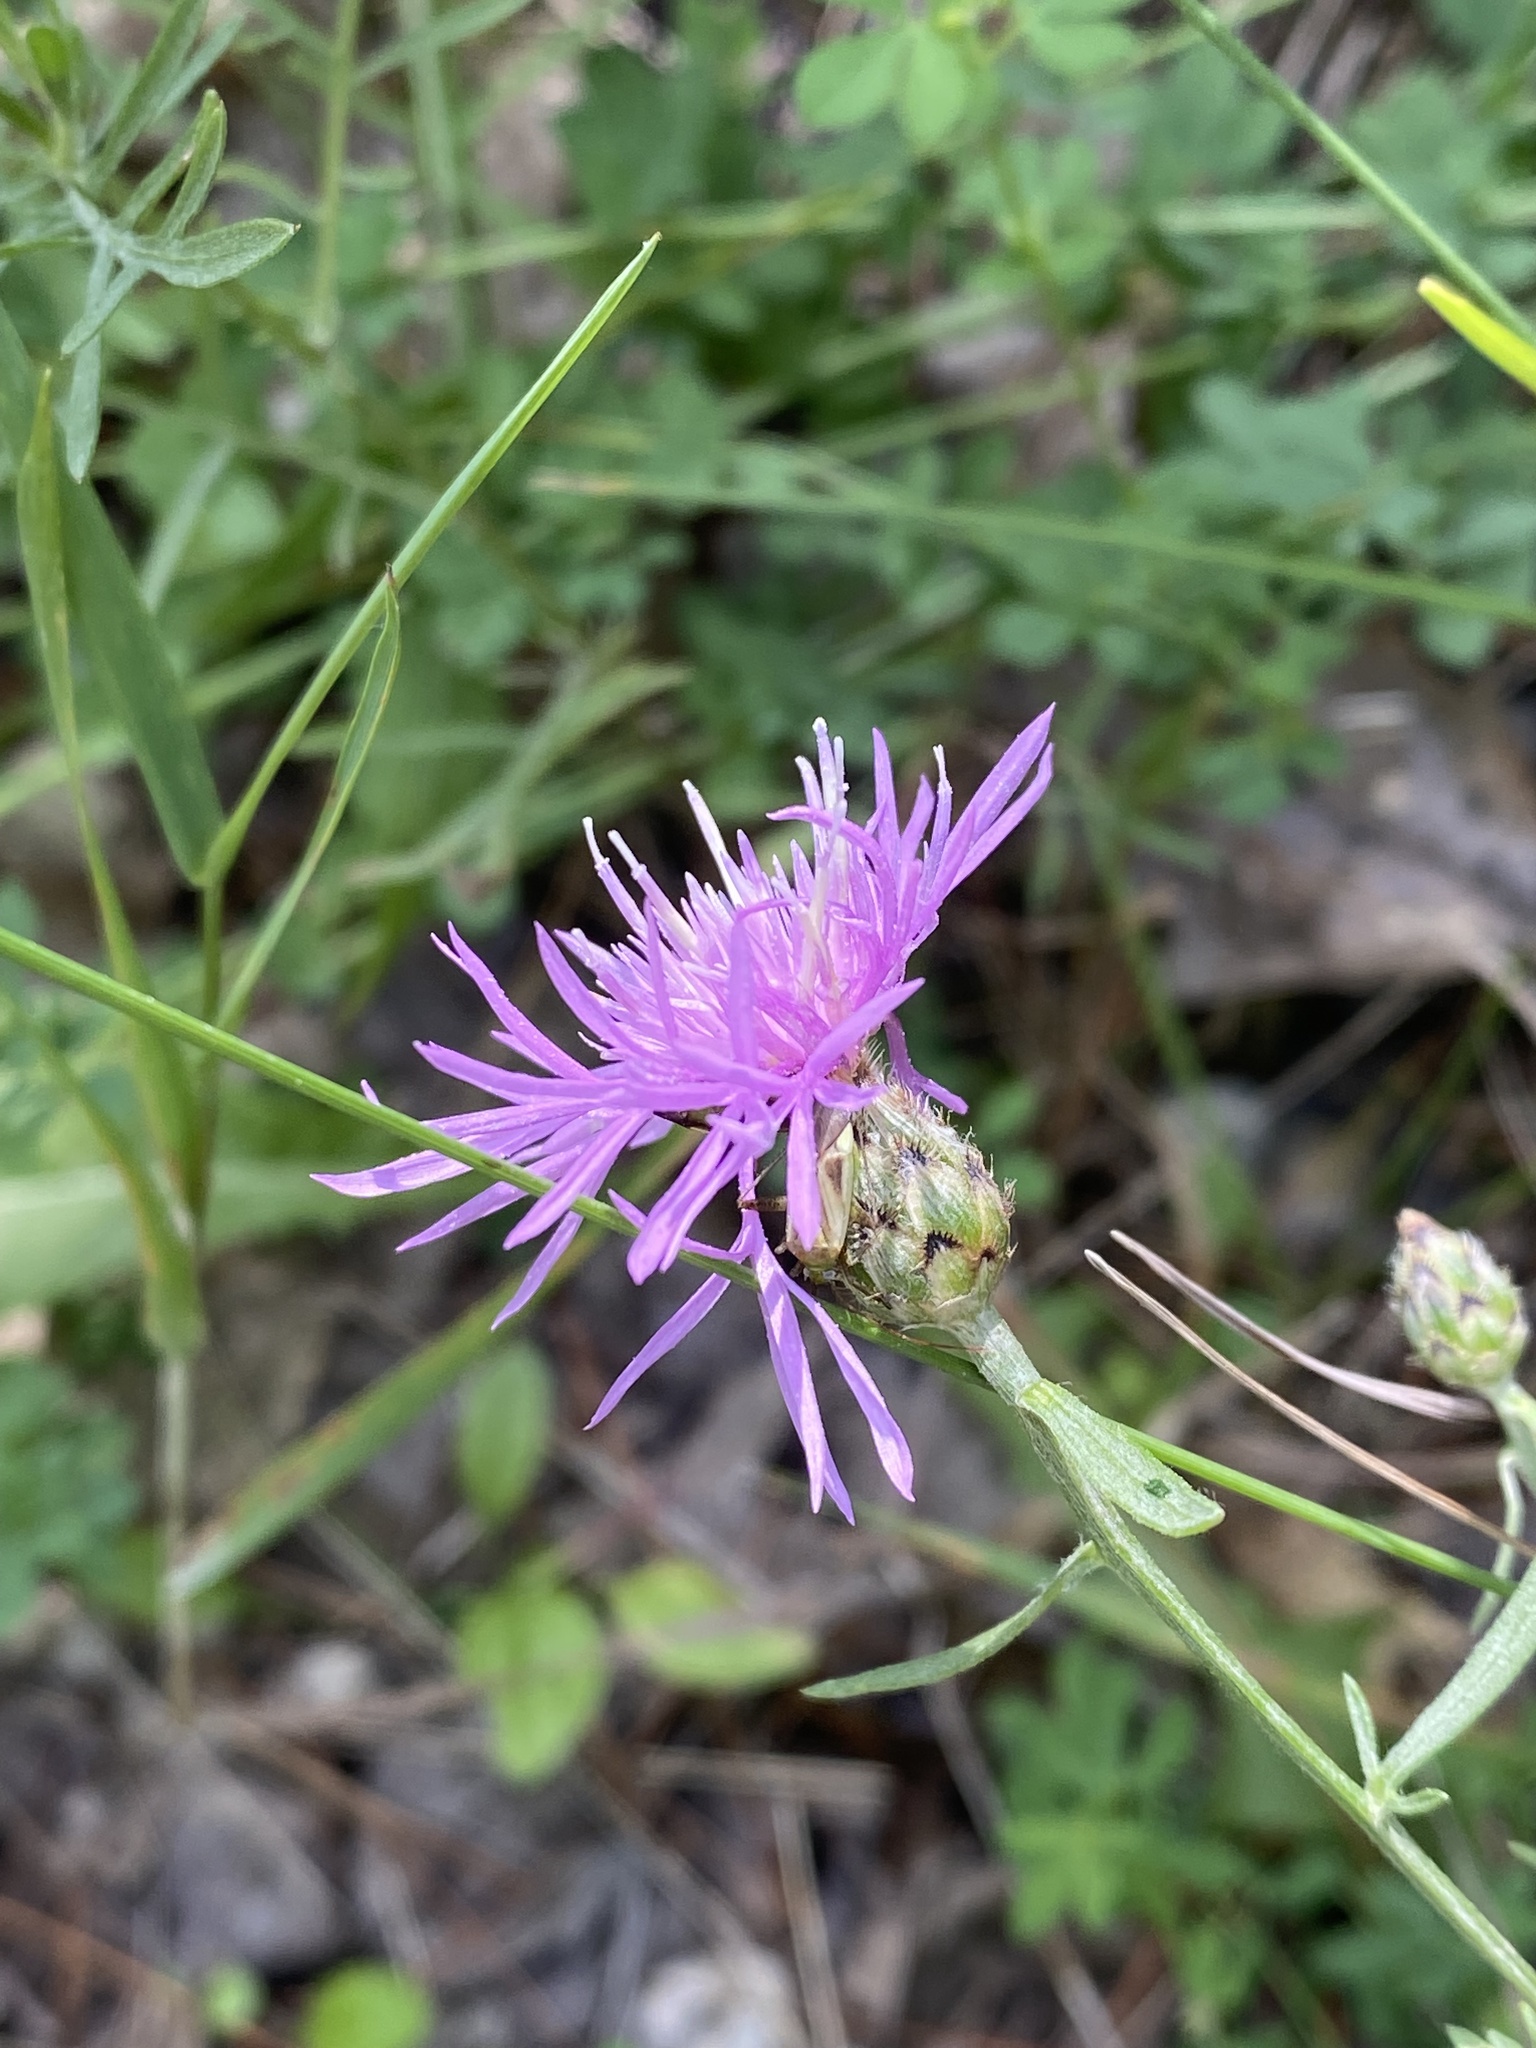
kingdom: Plantae
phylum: Tracheophyta
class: Magnoliopsida
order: Asterales
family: Asteraceae
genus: Centaurea
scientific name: Centaurea stoebe
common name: Spotted knapweed
